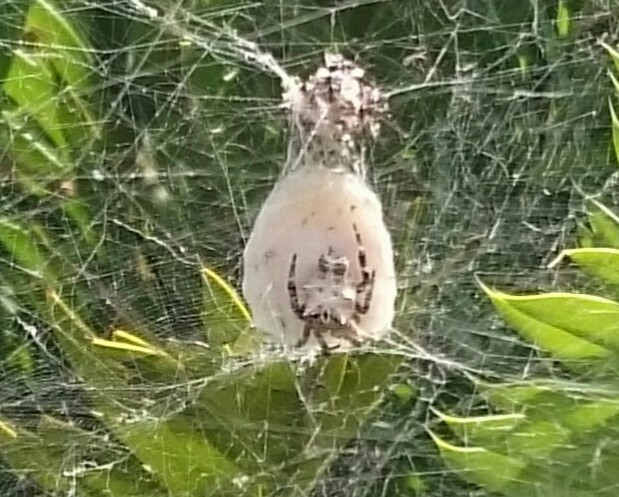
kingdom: Animalia
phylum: Arthropoda
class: Arachnida
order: Araneae
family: Araneidae
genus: Cyrtophora
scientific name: Cyrtophora citricola
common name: Orb weavers
